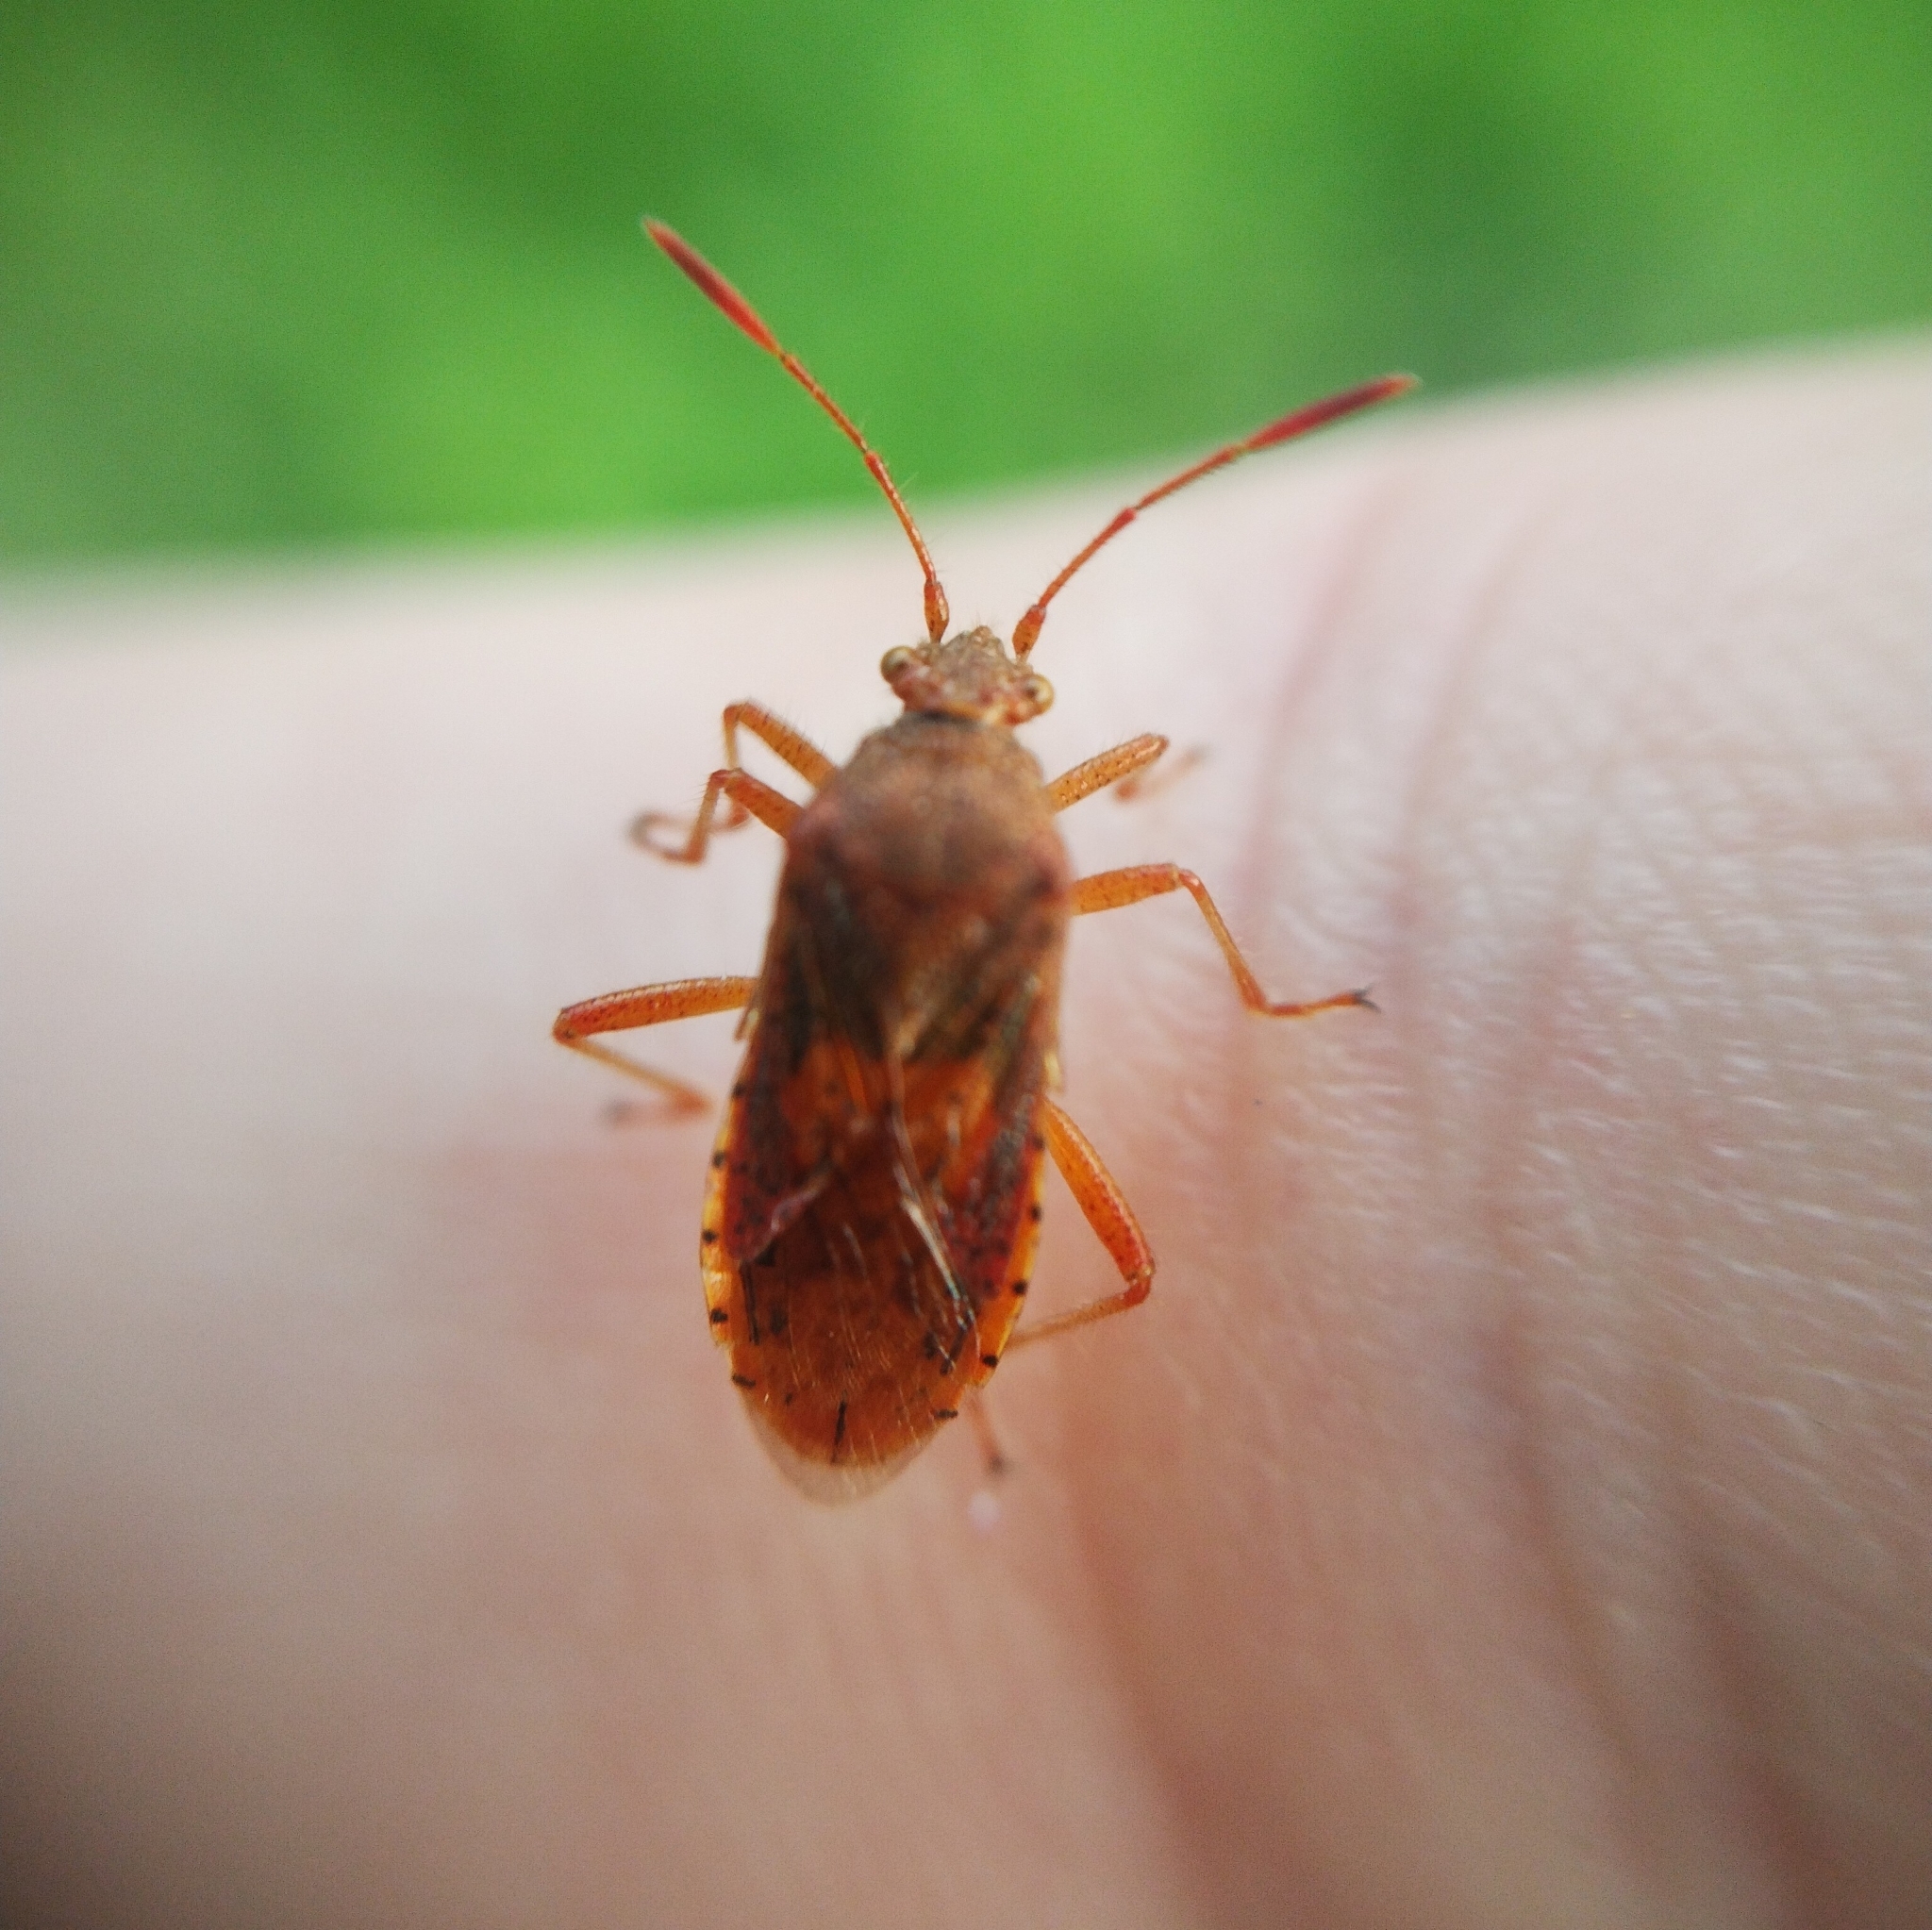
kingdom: Animalia
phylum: Arthropoda
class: Insecta
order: Hemiptera
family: Rhopalidae
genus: Rhopalus
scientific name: Rhopalus maculatus
